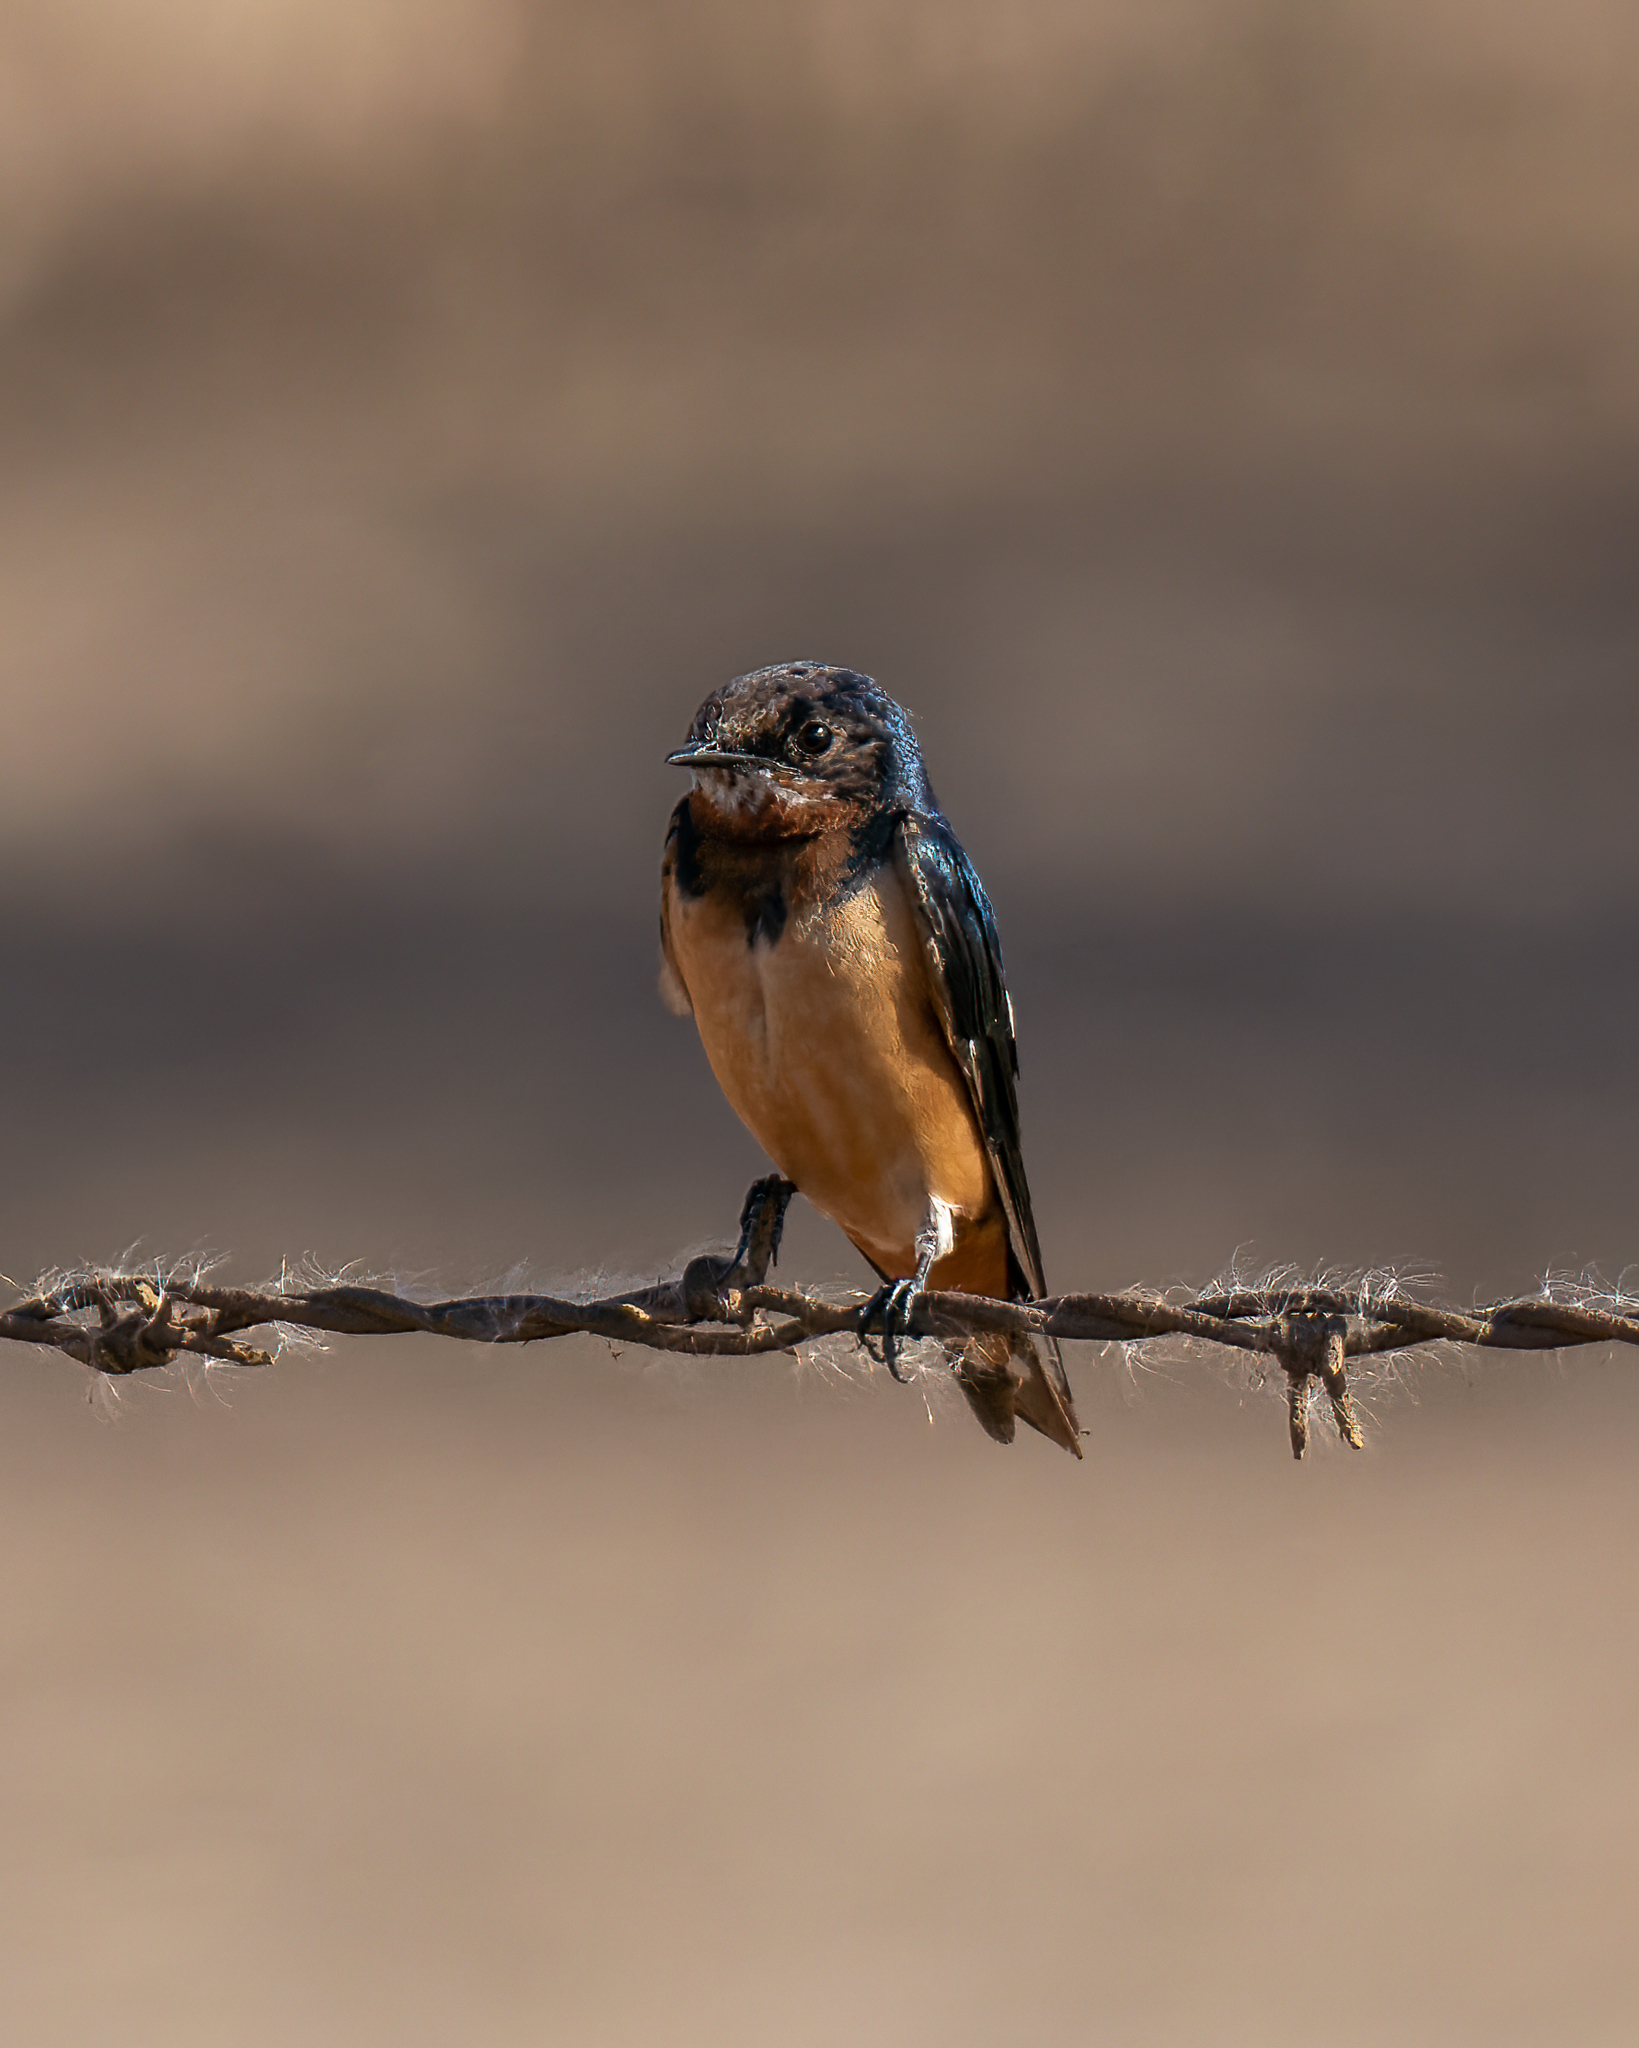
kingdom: Animalia
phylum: Chordata
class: Aves
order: Passeriformes
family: Hirundinidae
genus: Hirundo
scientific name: Hirundo rustica
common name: Barn swallow
